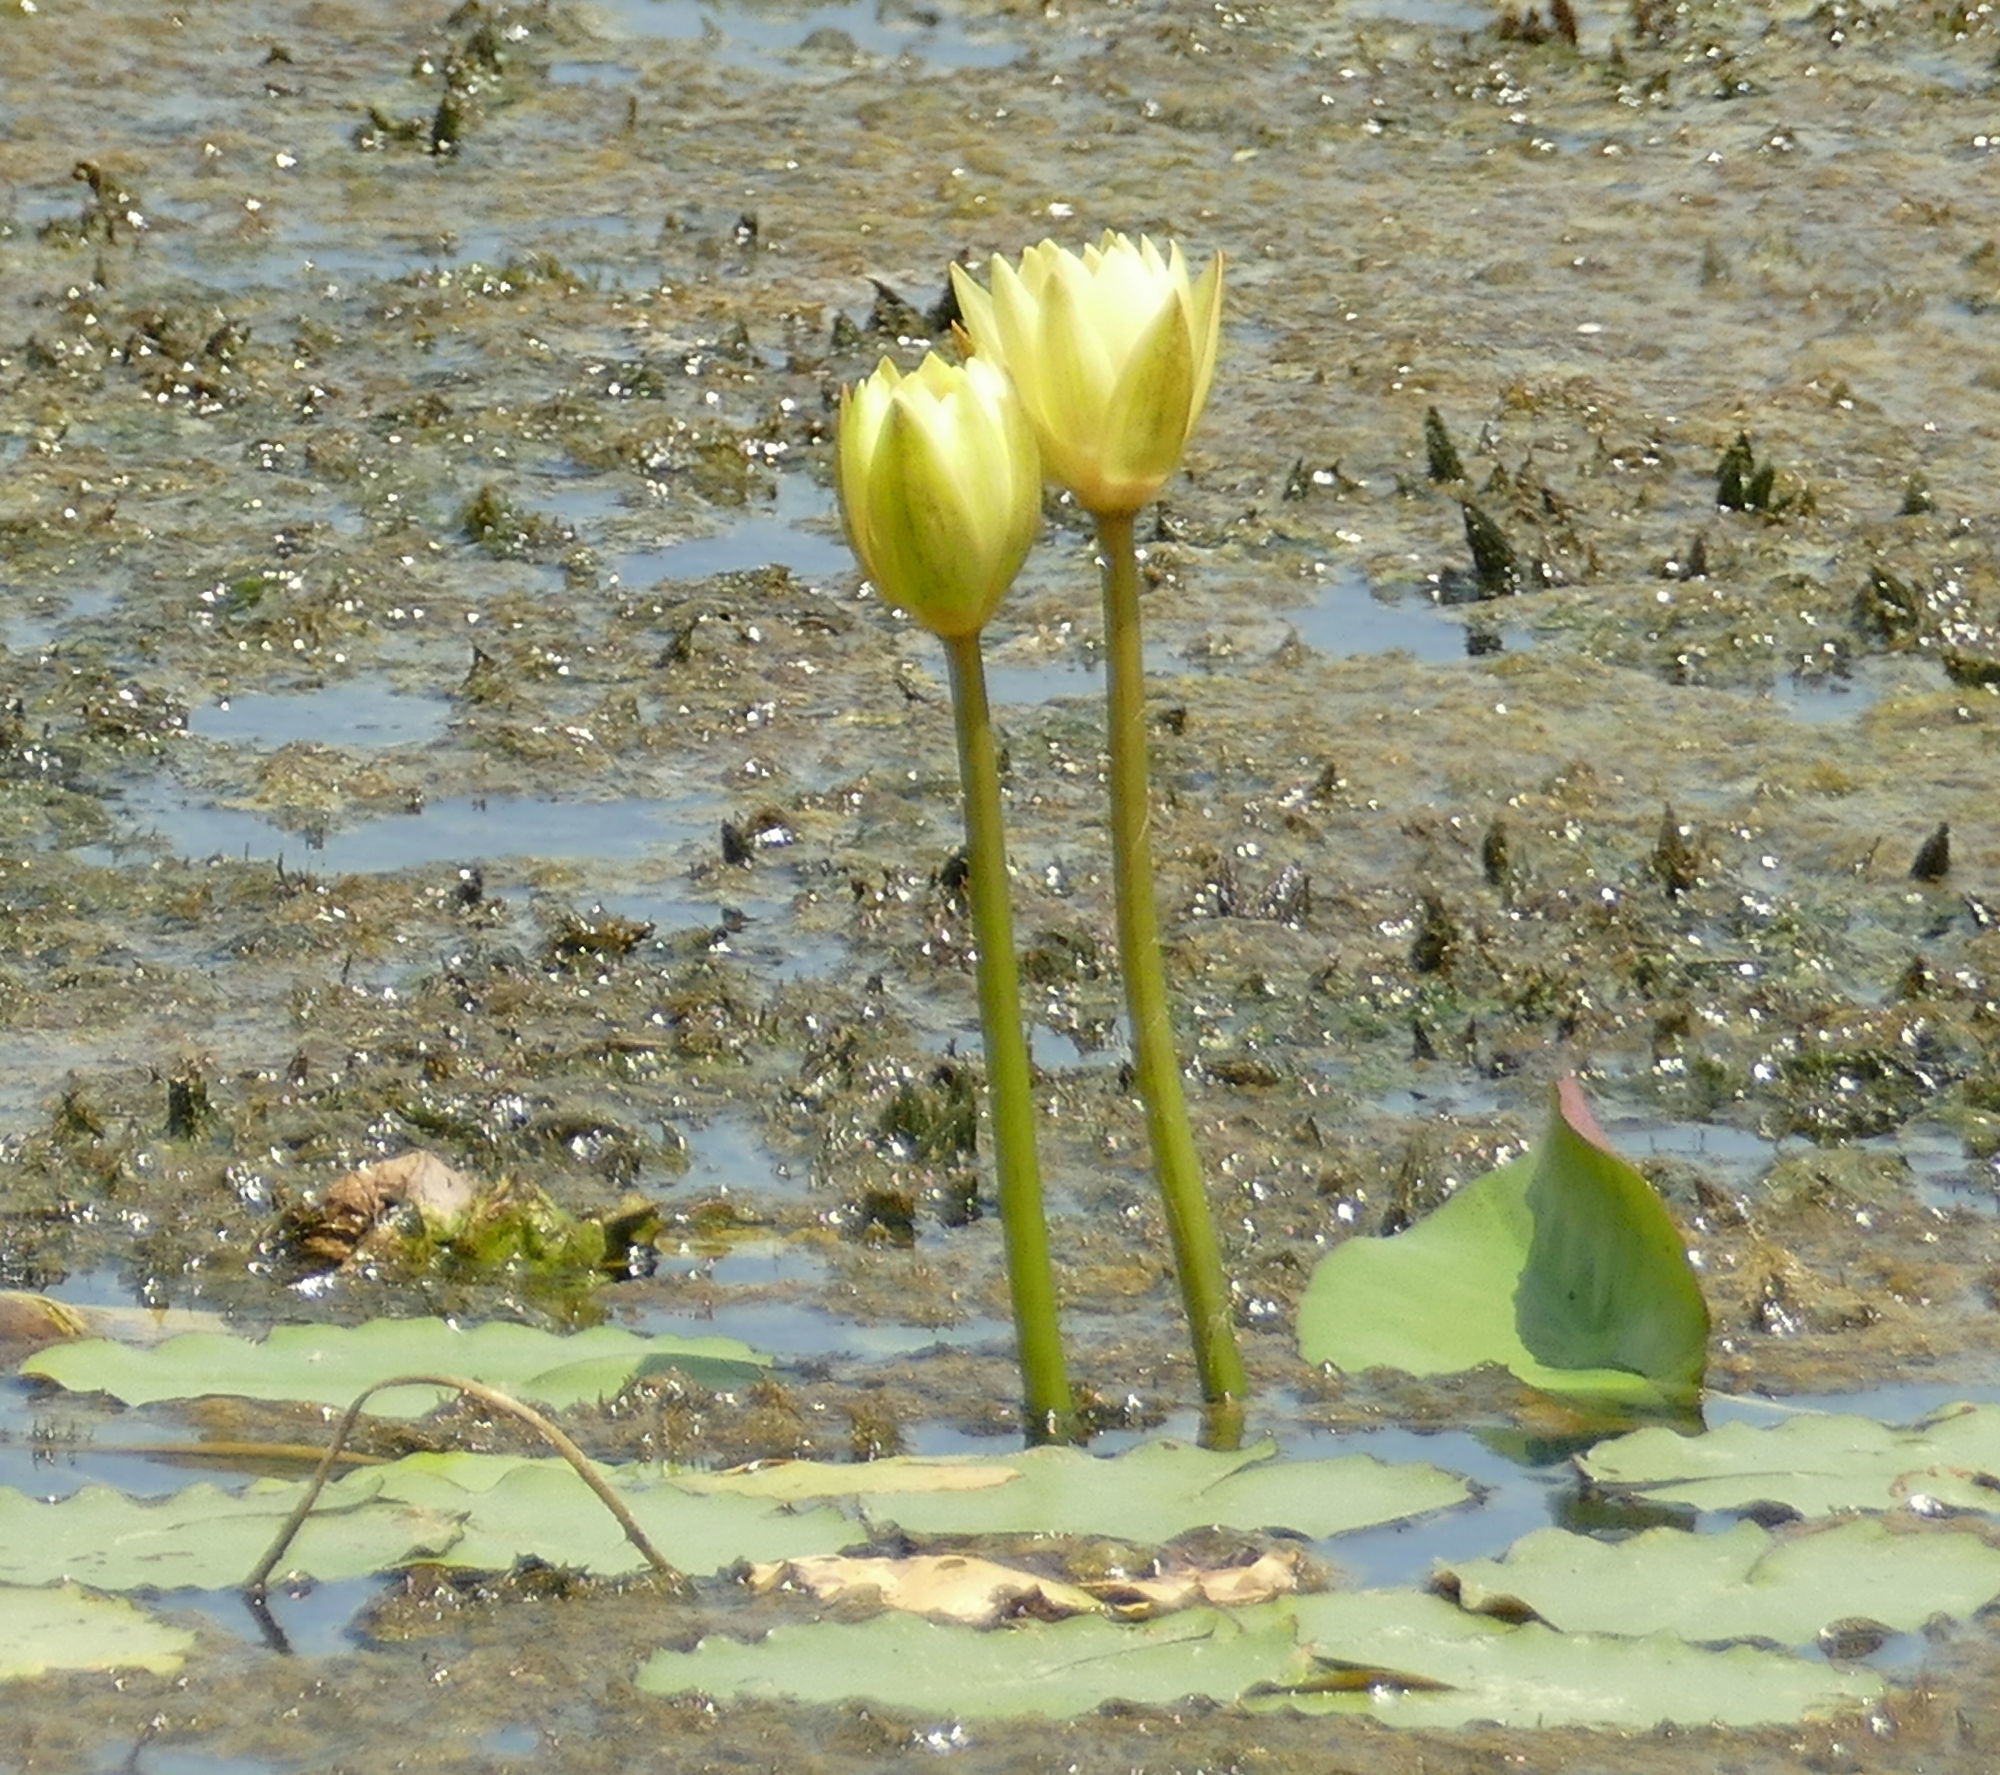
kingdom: Plantae
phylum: Tracheophyta
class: Magnoliopsida
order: Nymphaeales
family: Nymphaeaceae
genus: Nymphaea
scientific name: Nymphaea mexicana
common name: Banana water-lily
